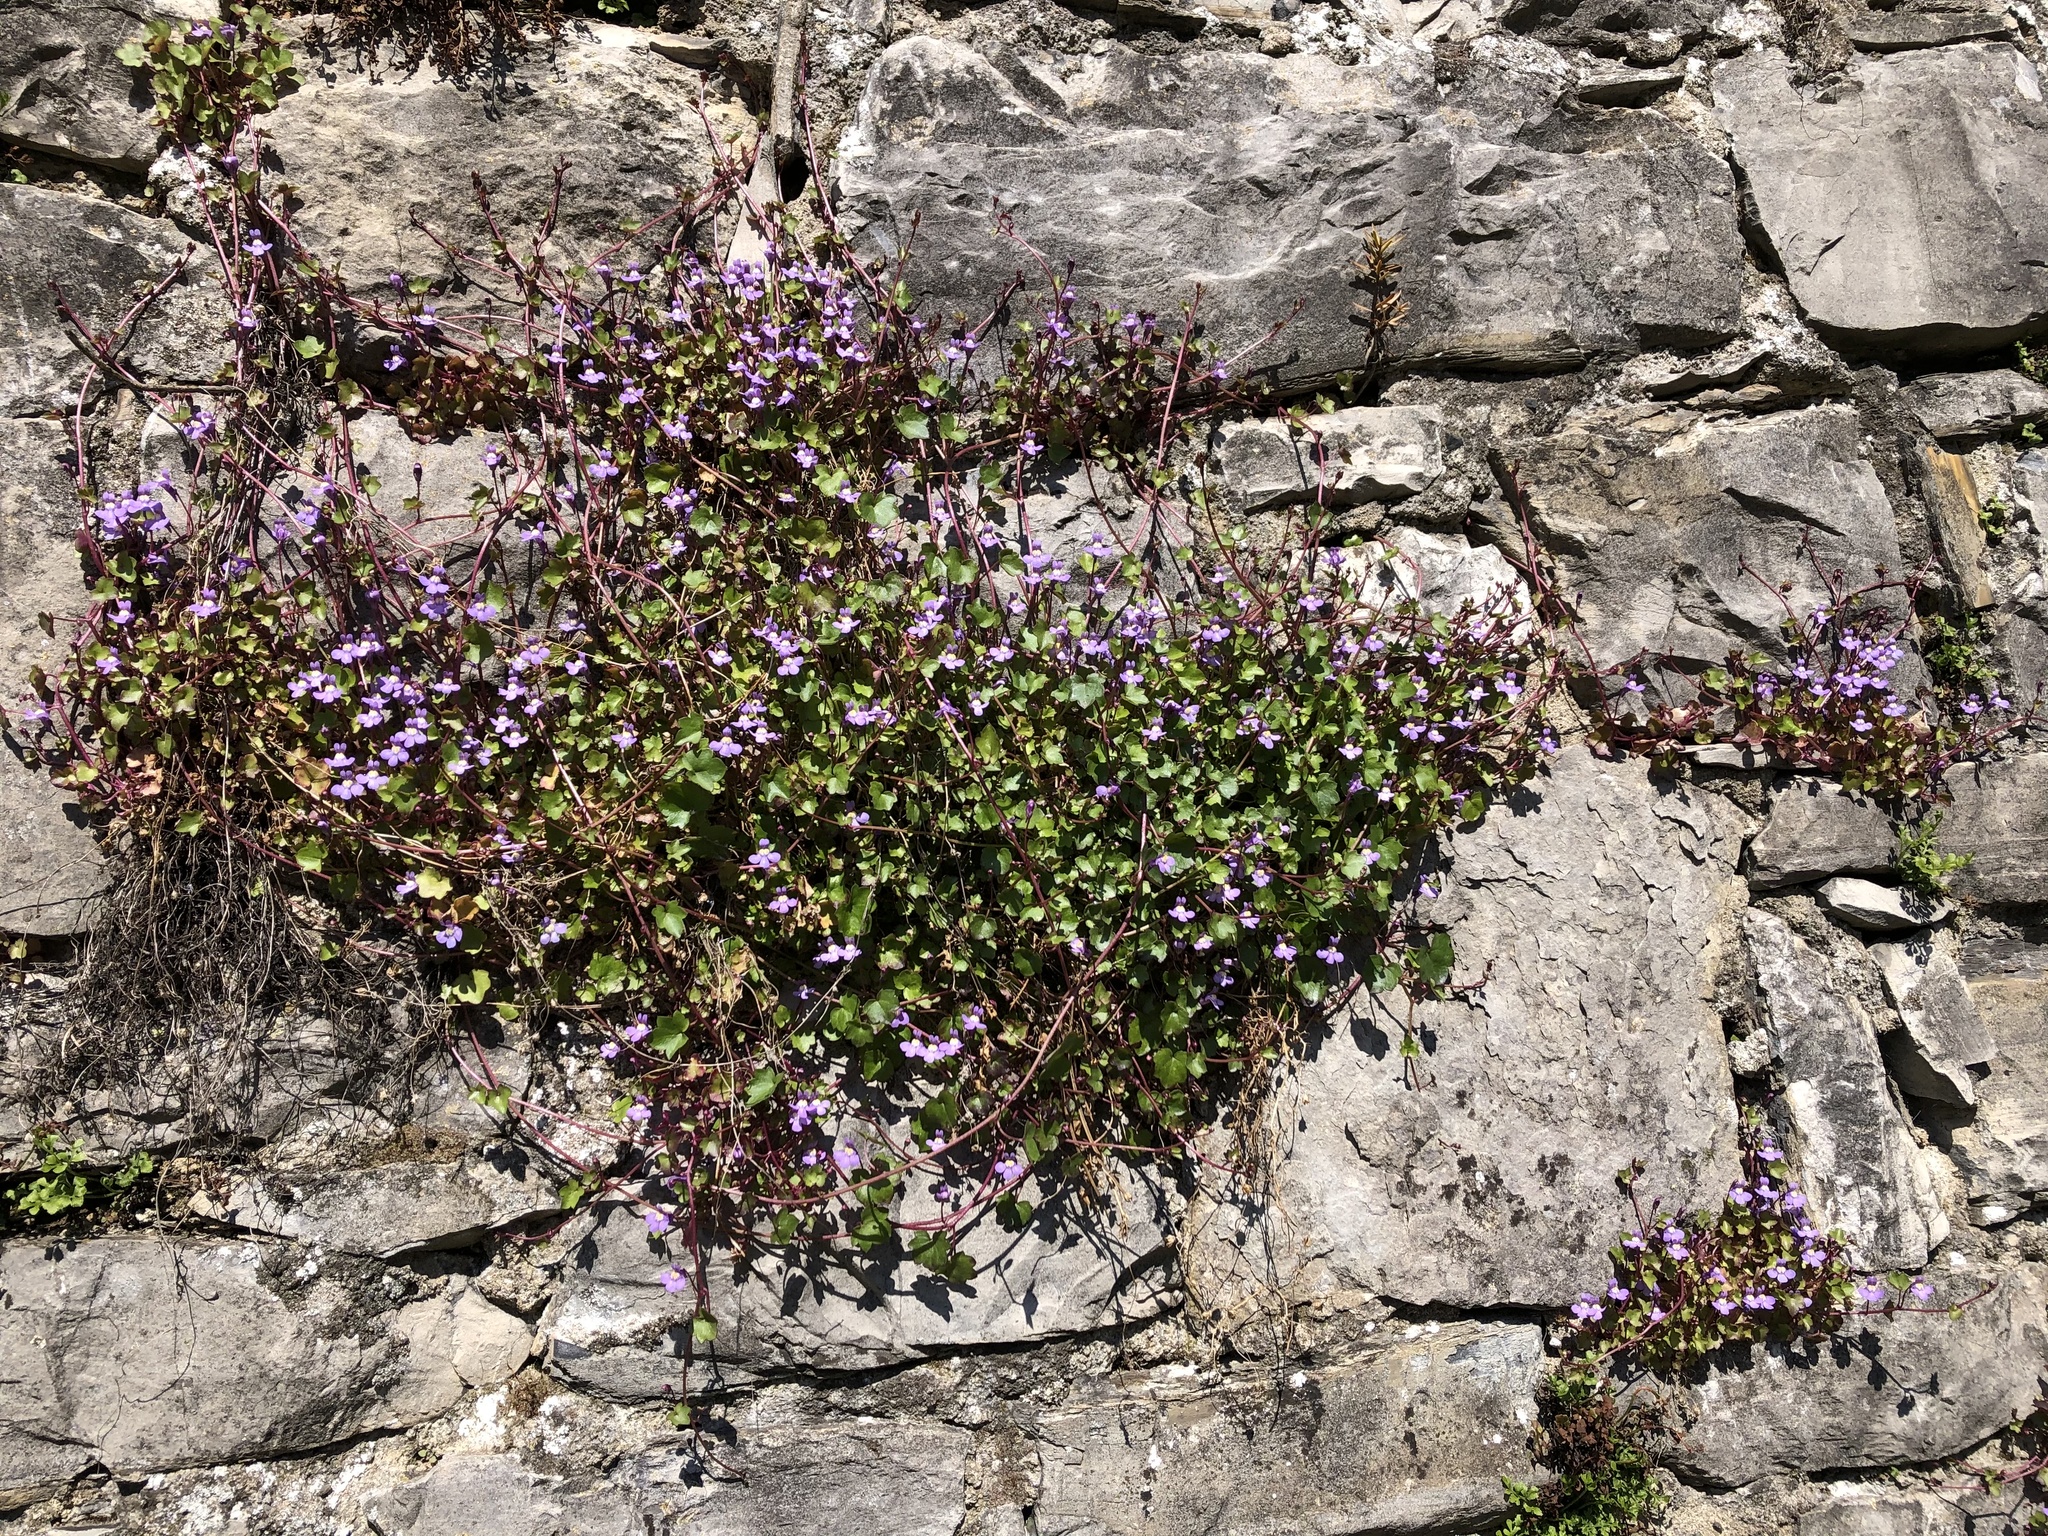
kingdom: Plantae
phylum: Tracheophyta
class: Magnoliopsida
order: Lamiales
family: Plantaginaceae
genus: Cymbalaria
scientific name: Cymbalaria muralis
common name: Ivy-leaved toadflax
